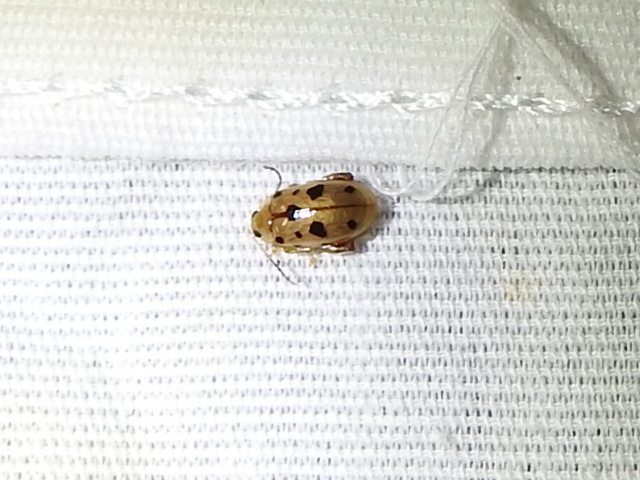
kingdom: Animalia
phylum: Arthropoda
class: Insecta
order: Coleoptera
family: Chrysomelidae
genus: Capraita
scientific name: Capraita nigrosignata
